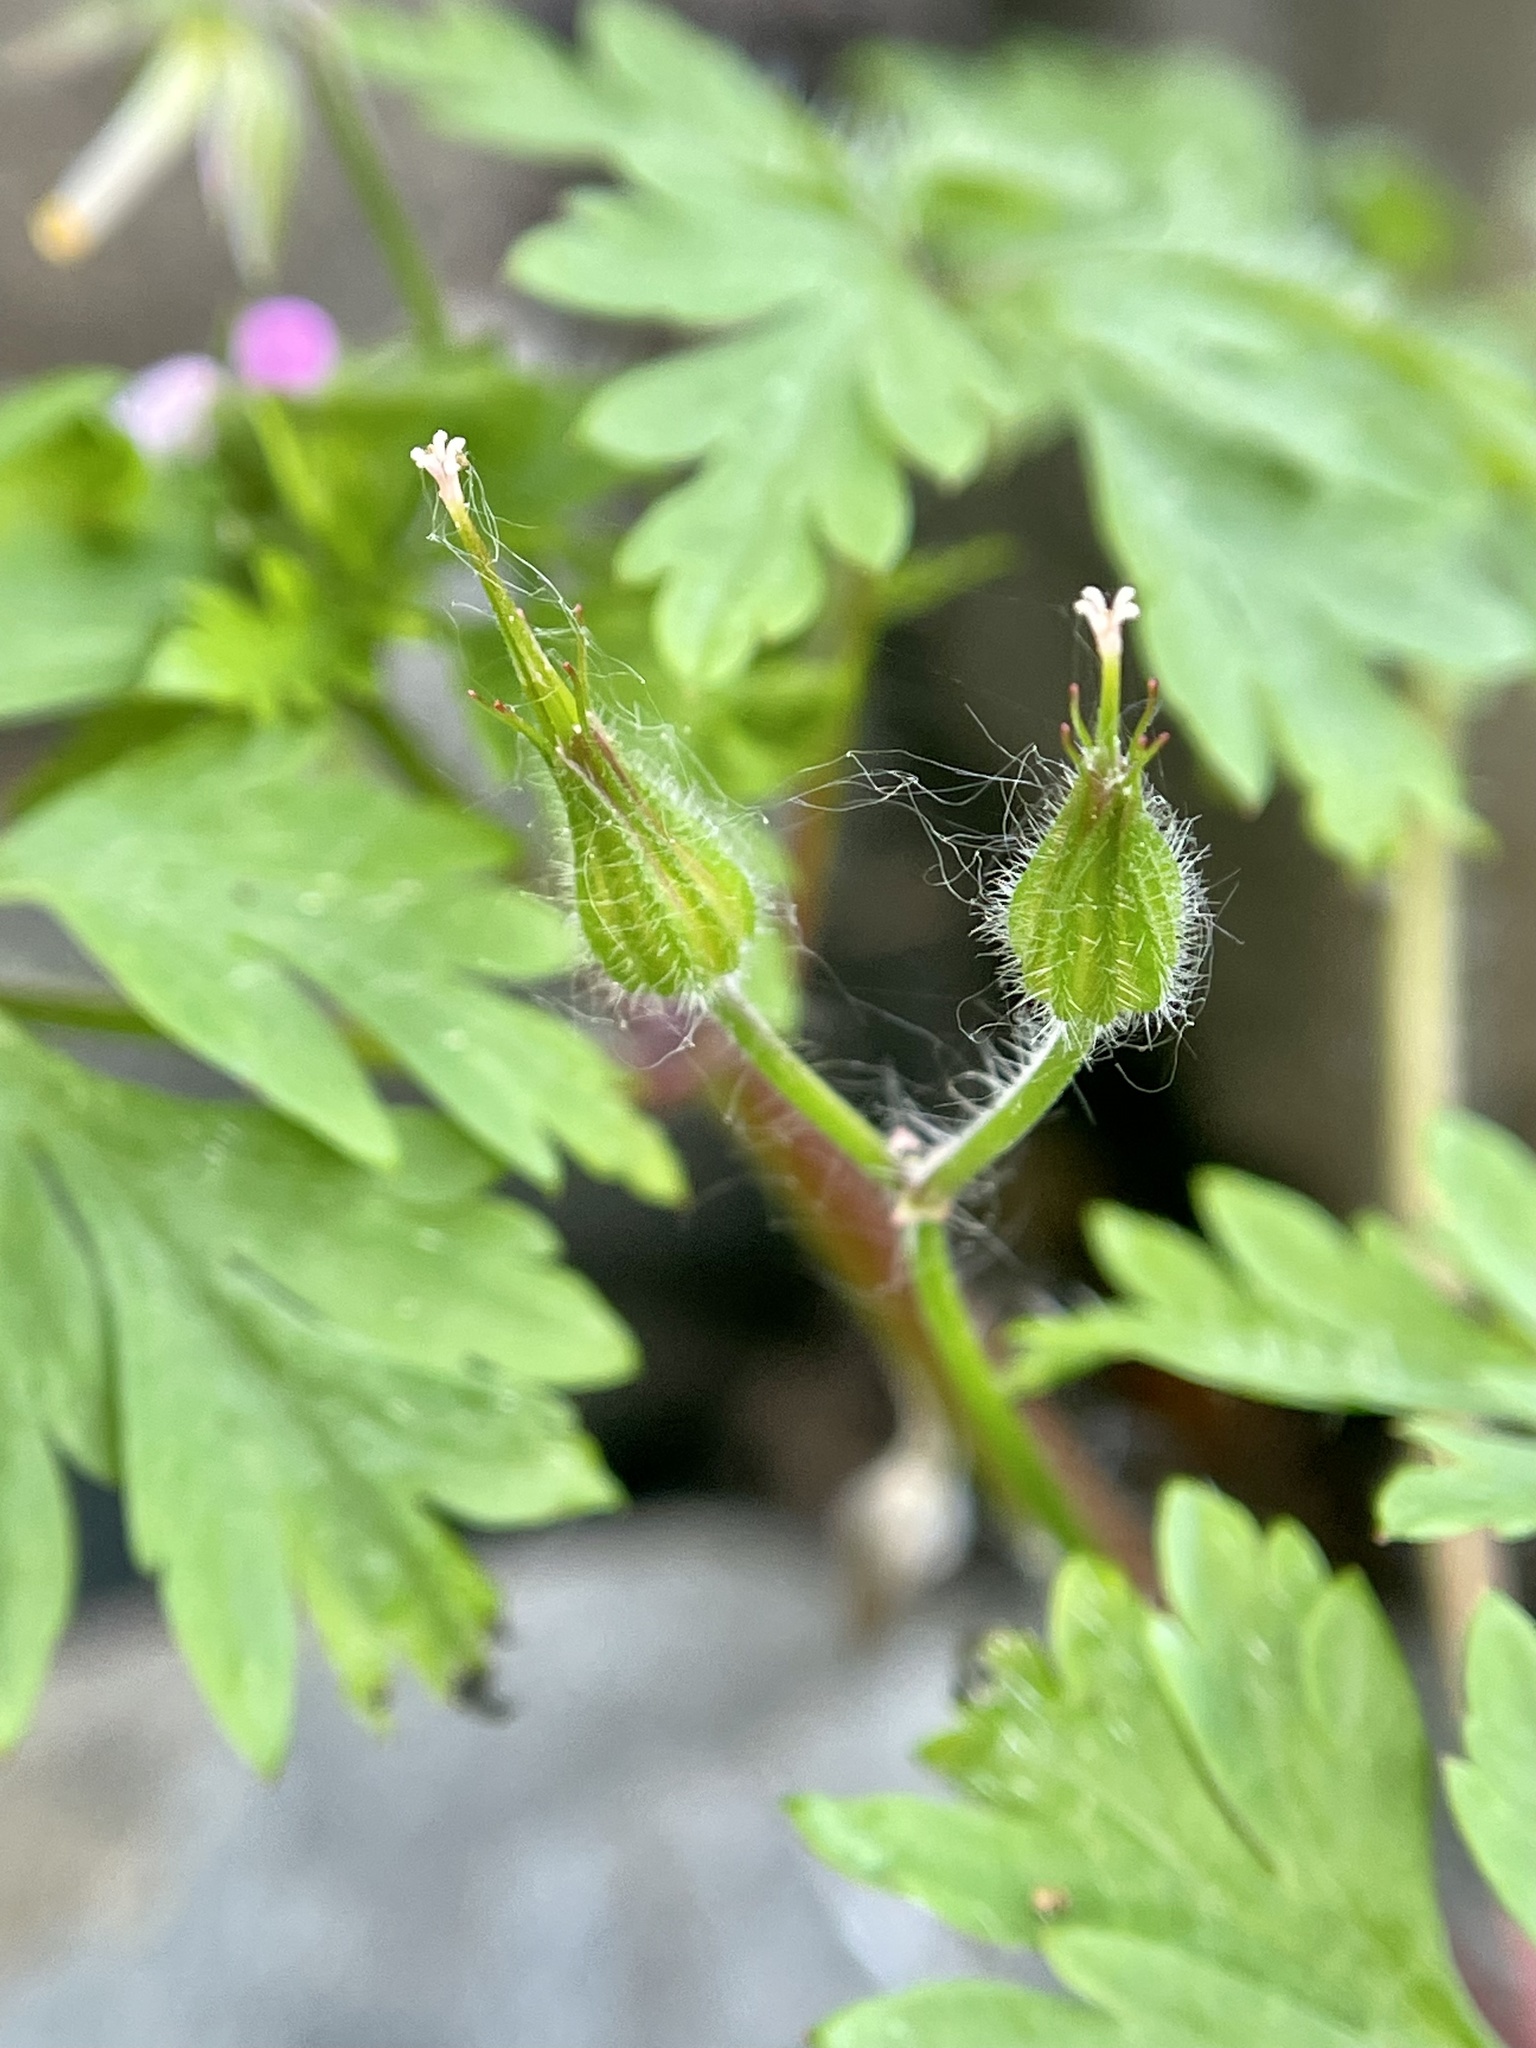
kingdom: Plantae
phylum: Tracheophyta
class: Magnoliopsida
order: Geraniales
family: Geraniaceae
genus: Geranium
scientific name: Geranium purpureum
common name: Little-robin
